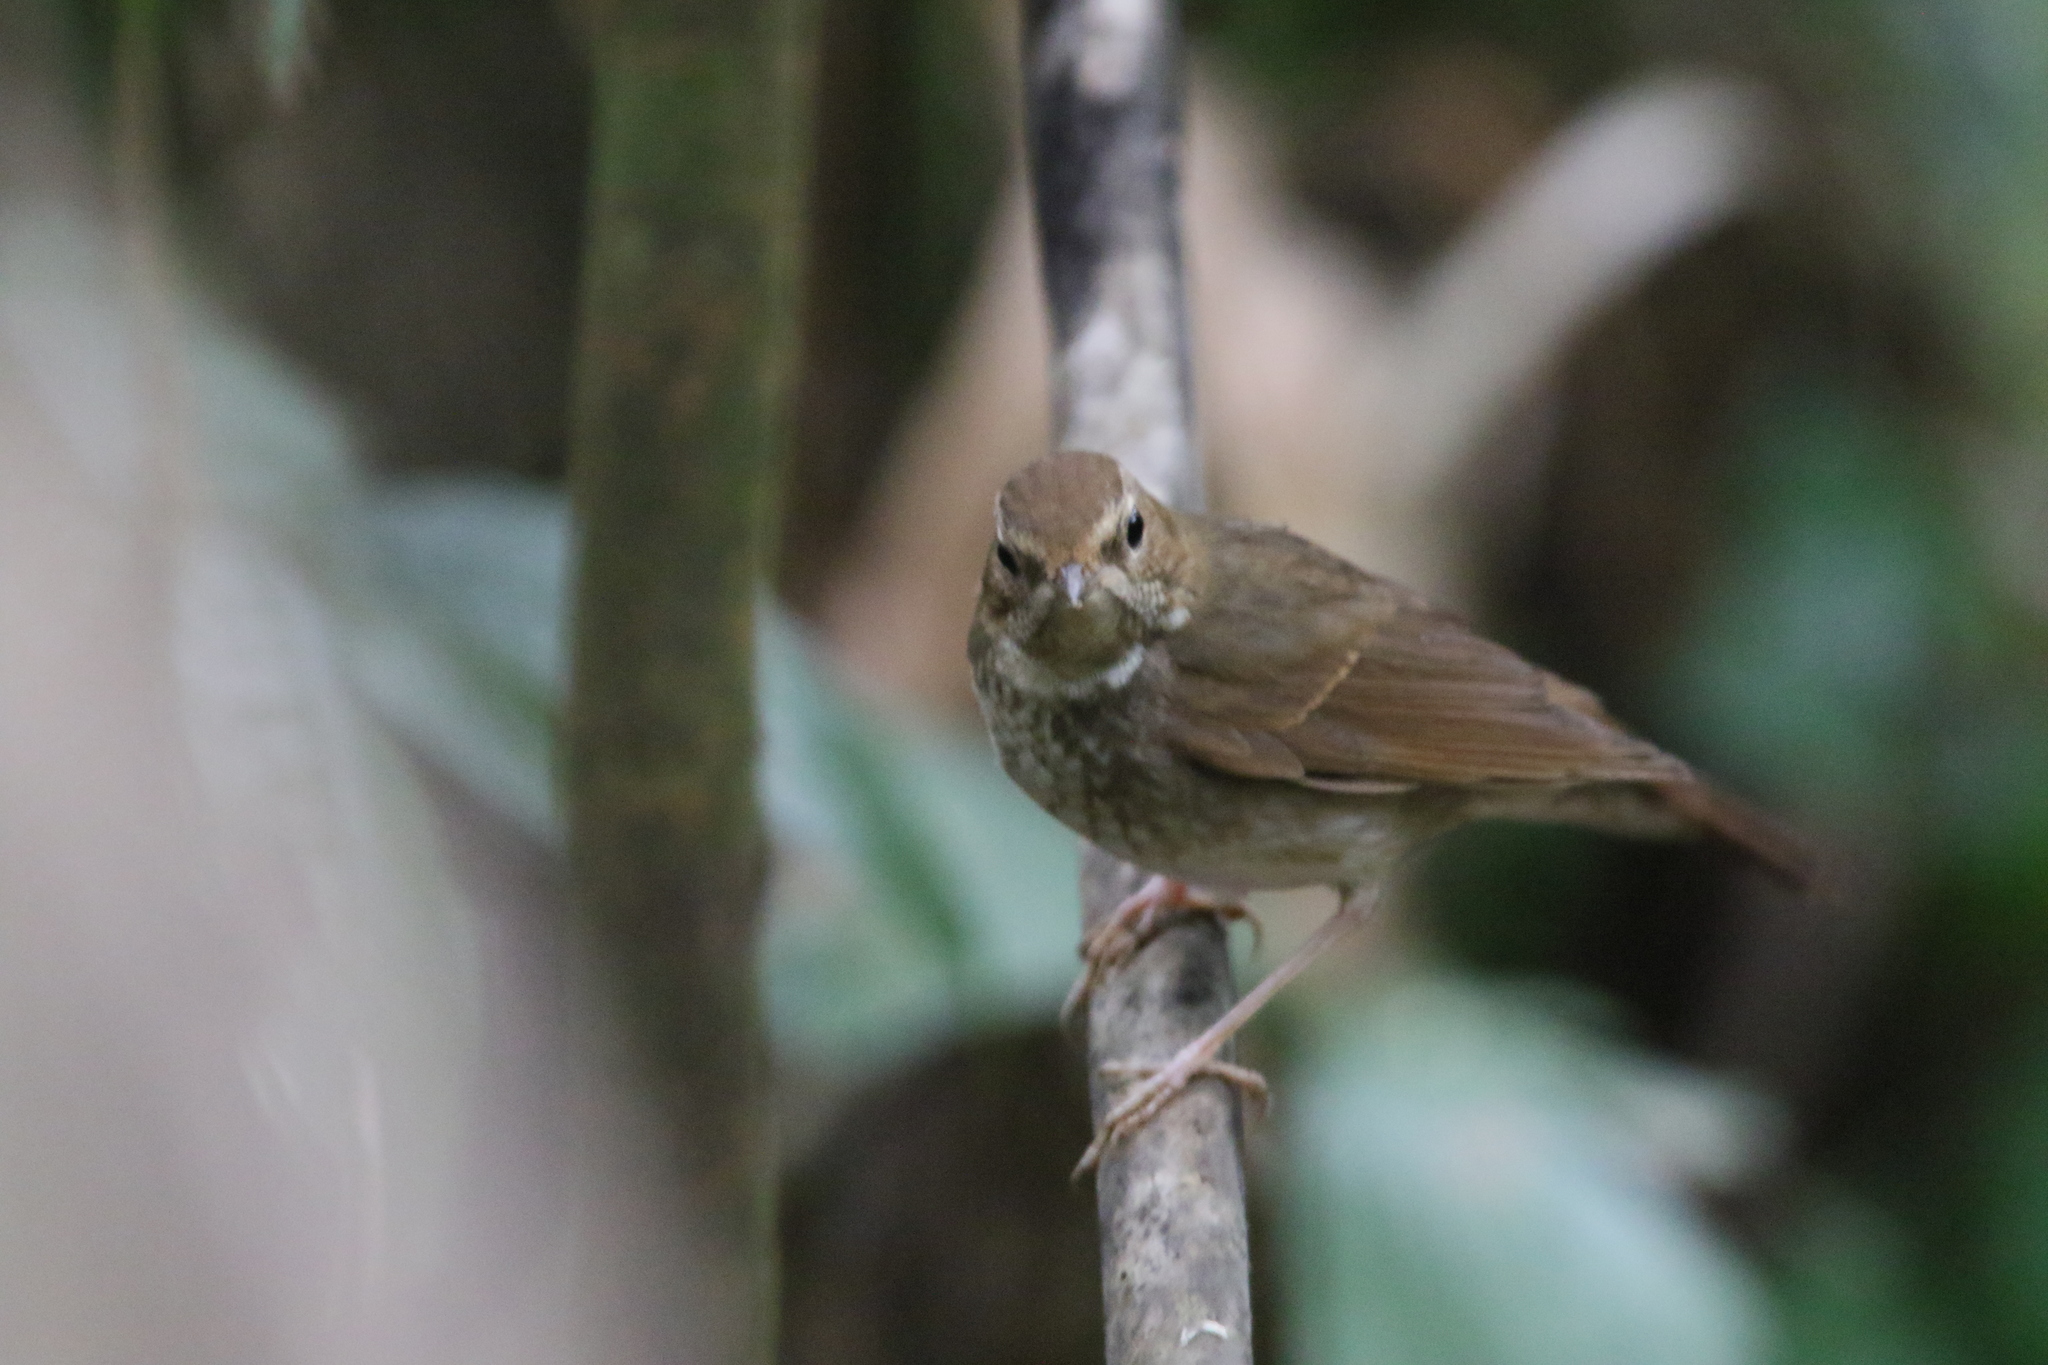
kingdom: Animalia
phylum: Chordata
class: Aves
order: Passeriformes
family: Muscicapidae
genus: Larvivora
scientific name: Larvivora sibilans
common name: Rufous-tailed robin
